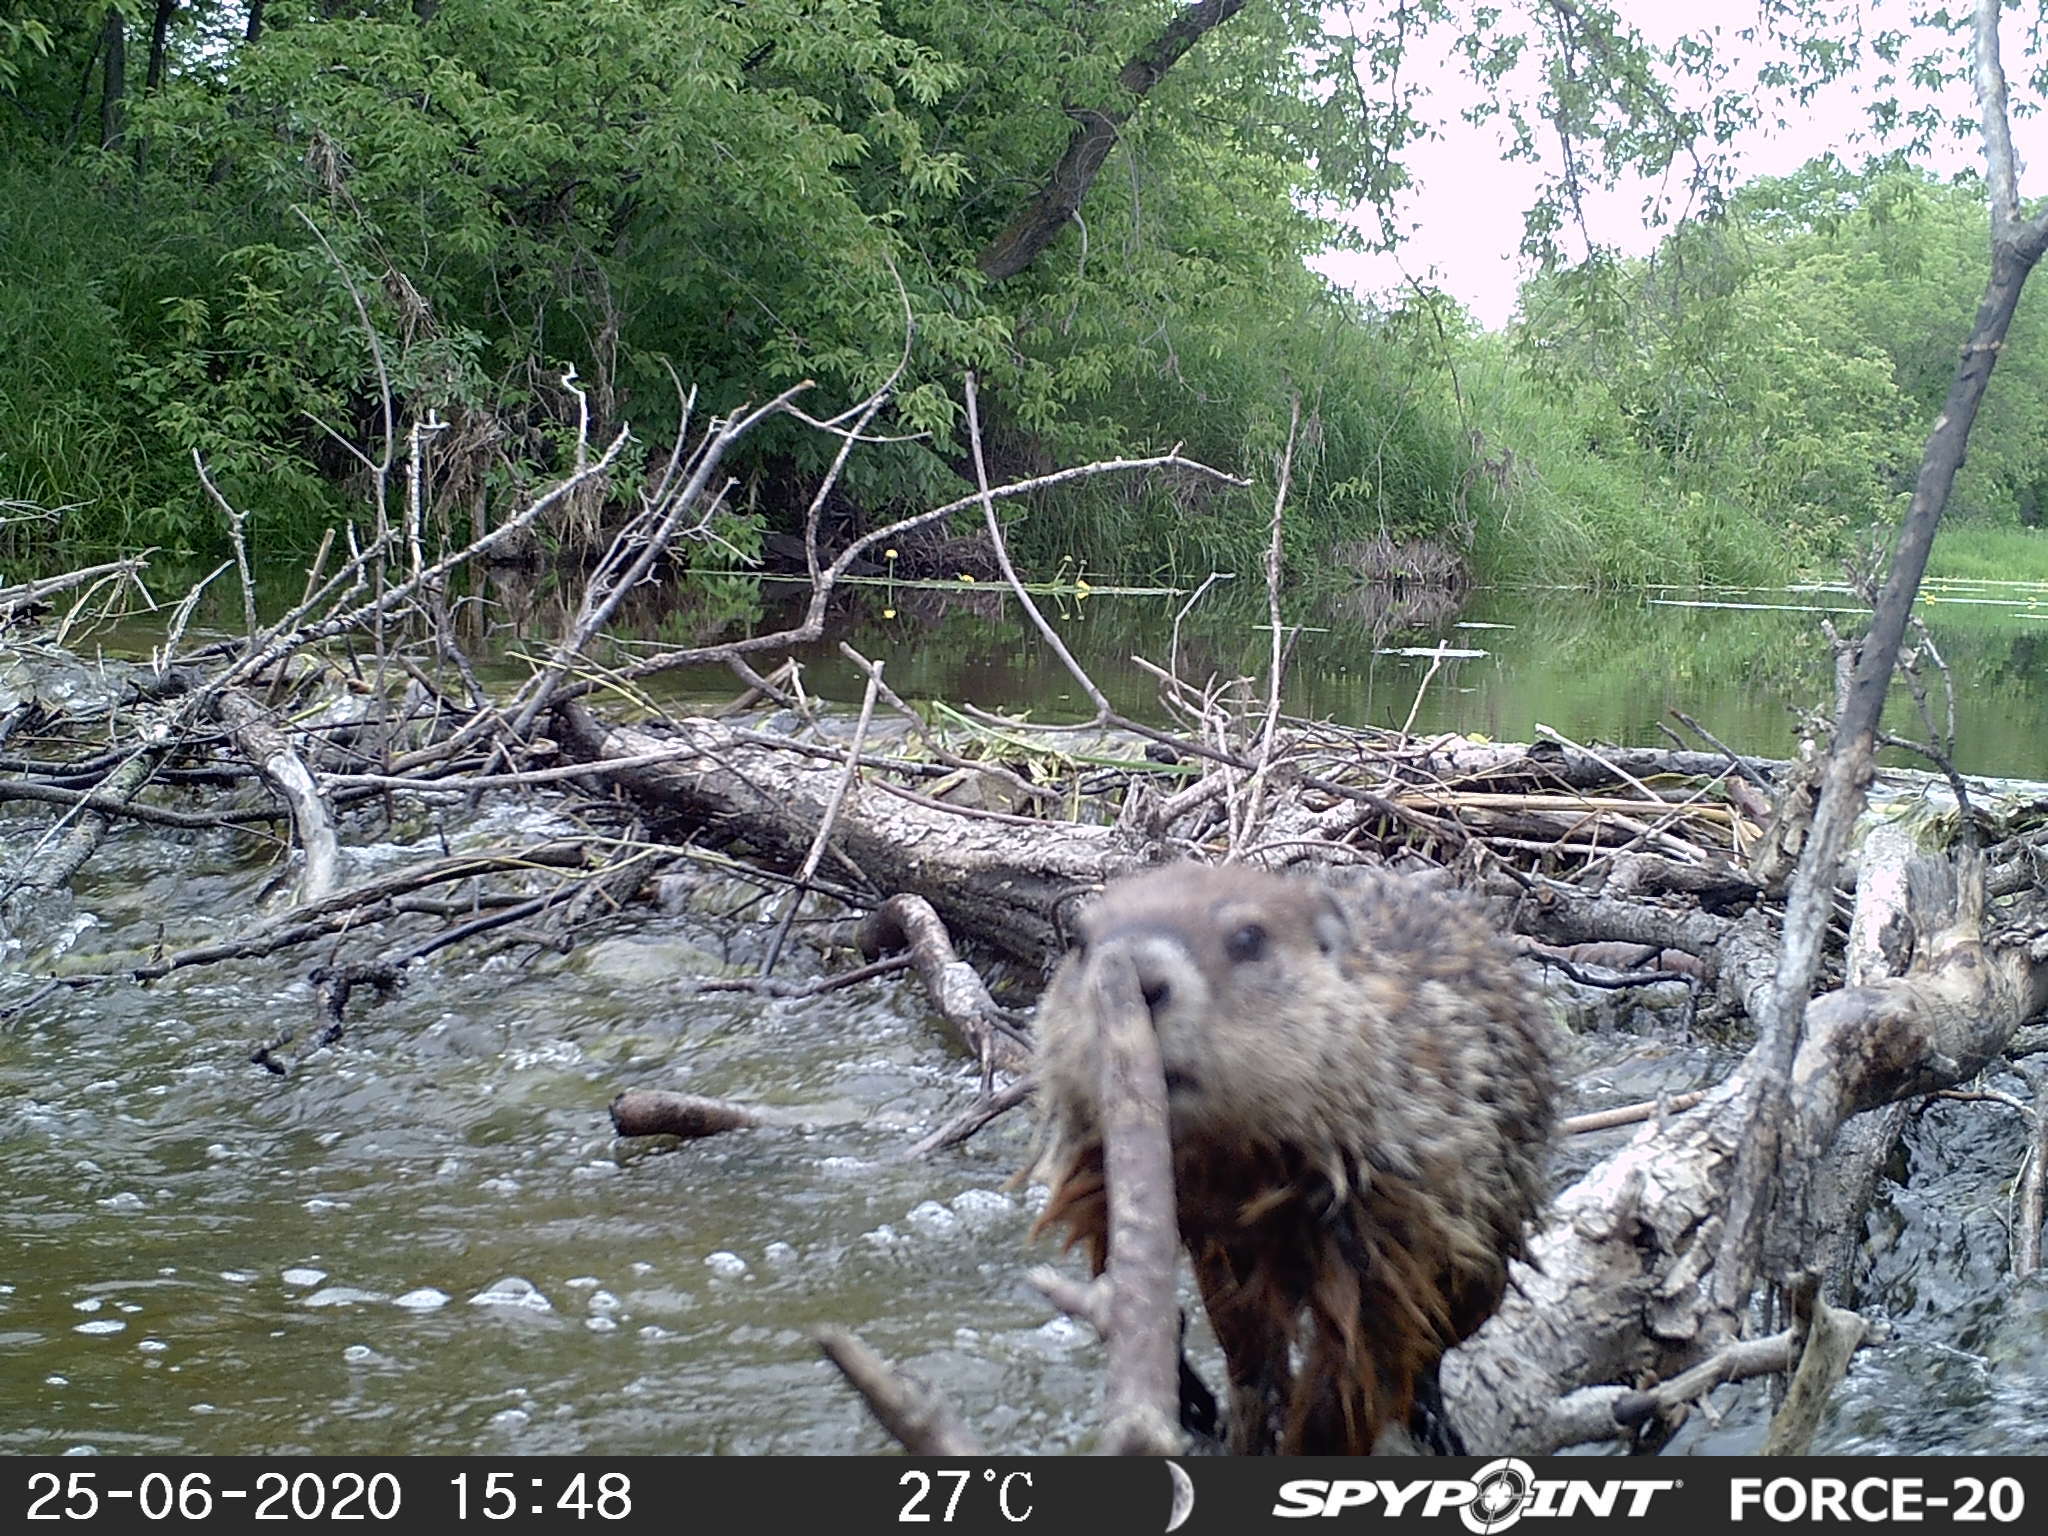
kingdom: Animalia
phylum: Chordata
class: Mammalia
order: Rodentia
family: Sciuridae
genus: Marmota
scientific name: Marmota monax
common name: Groundhog
